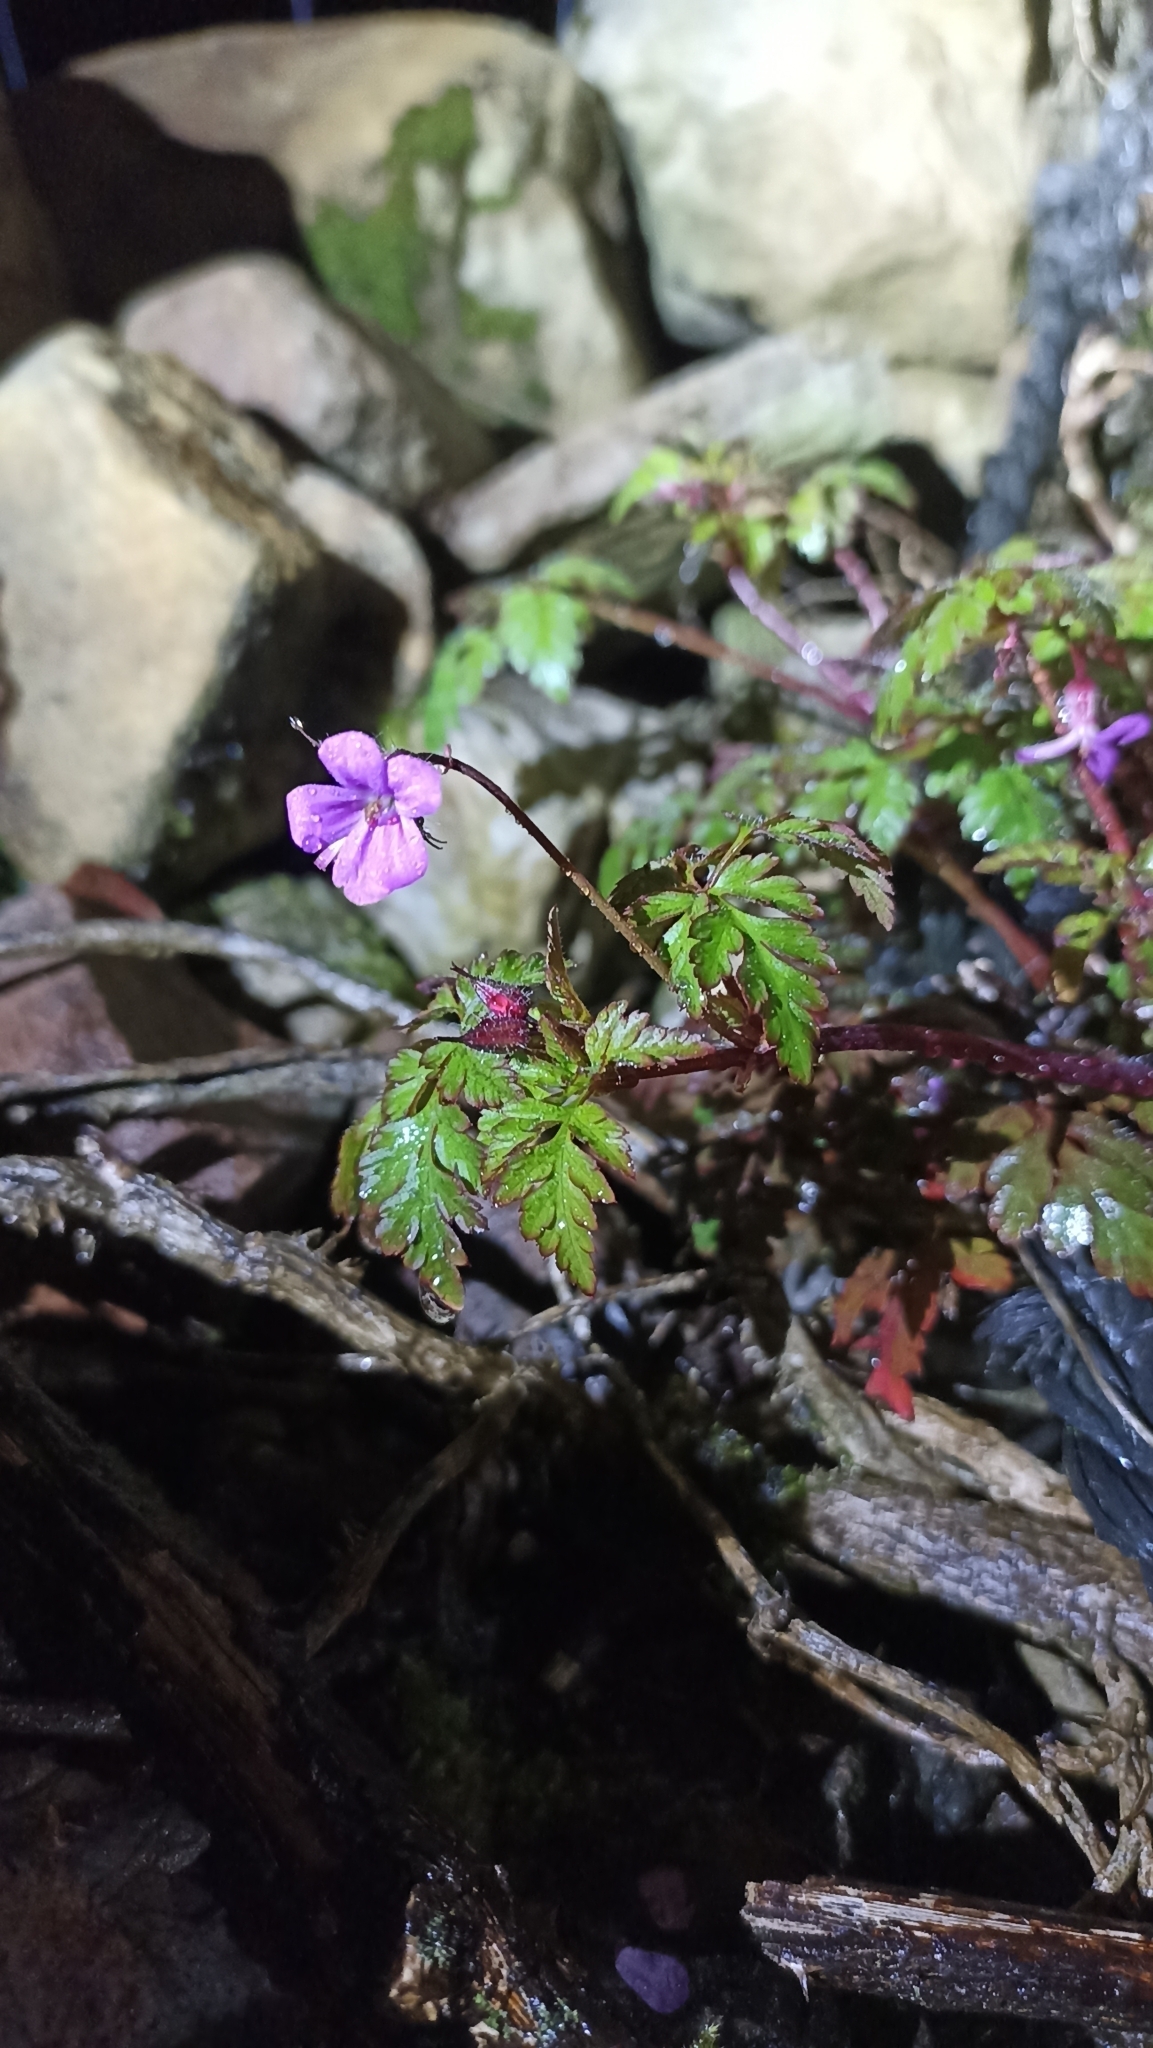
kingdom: Plantae
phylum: Tracheophyta
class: Magnoliopsida
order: Geraniales
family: Geraniaceae
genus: Geranium
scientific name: Geranium robertianum
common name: Herb-robert
